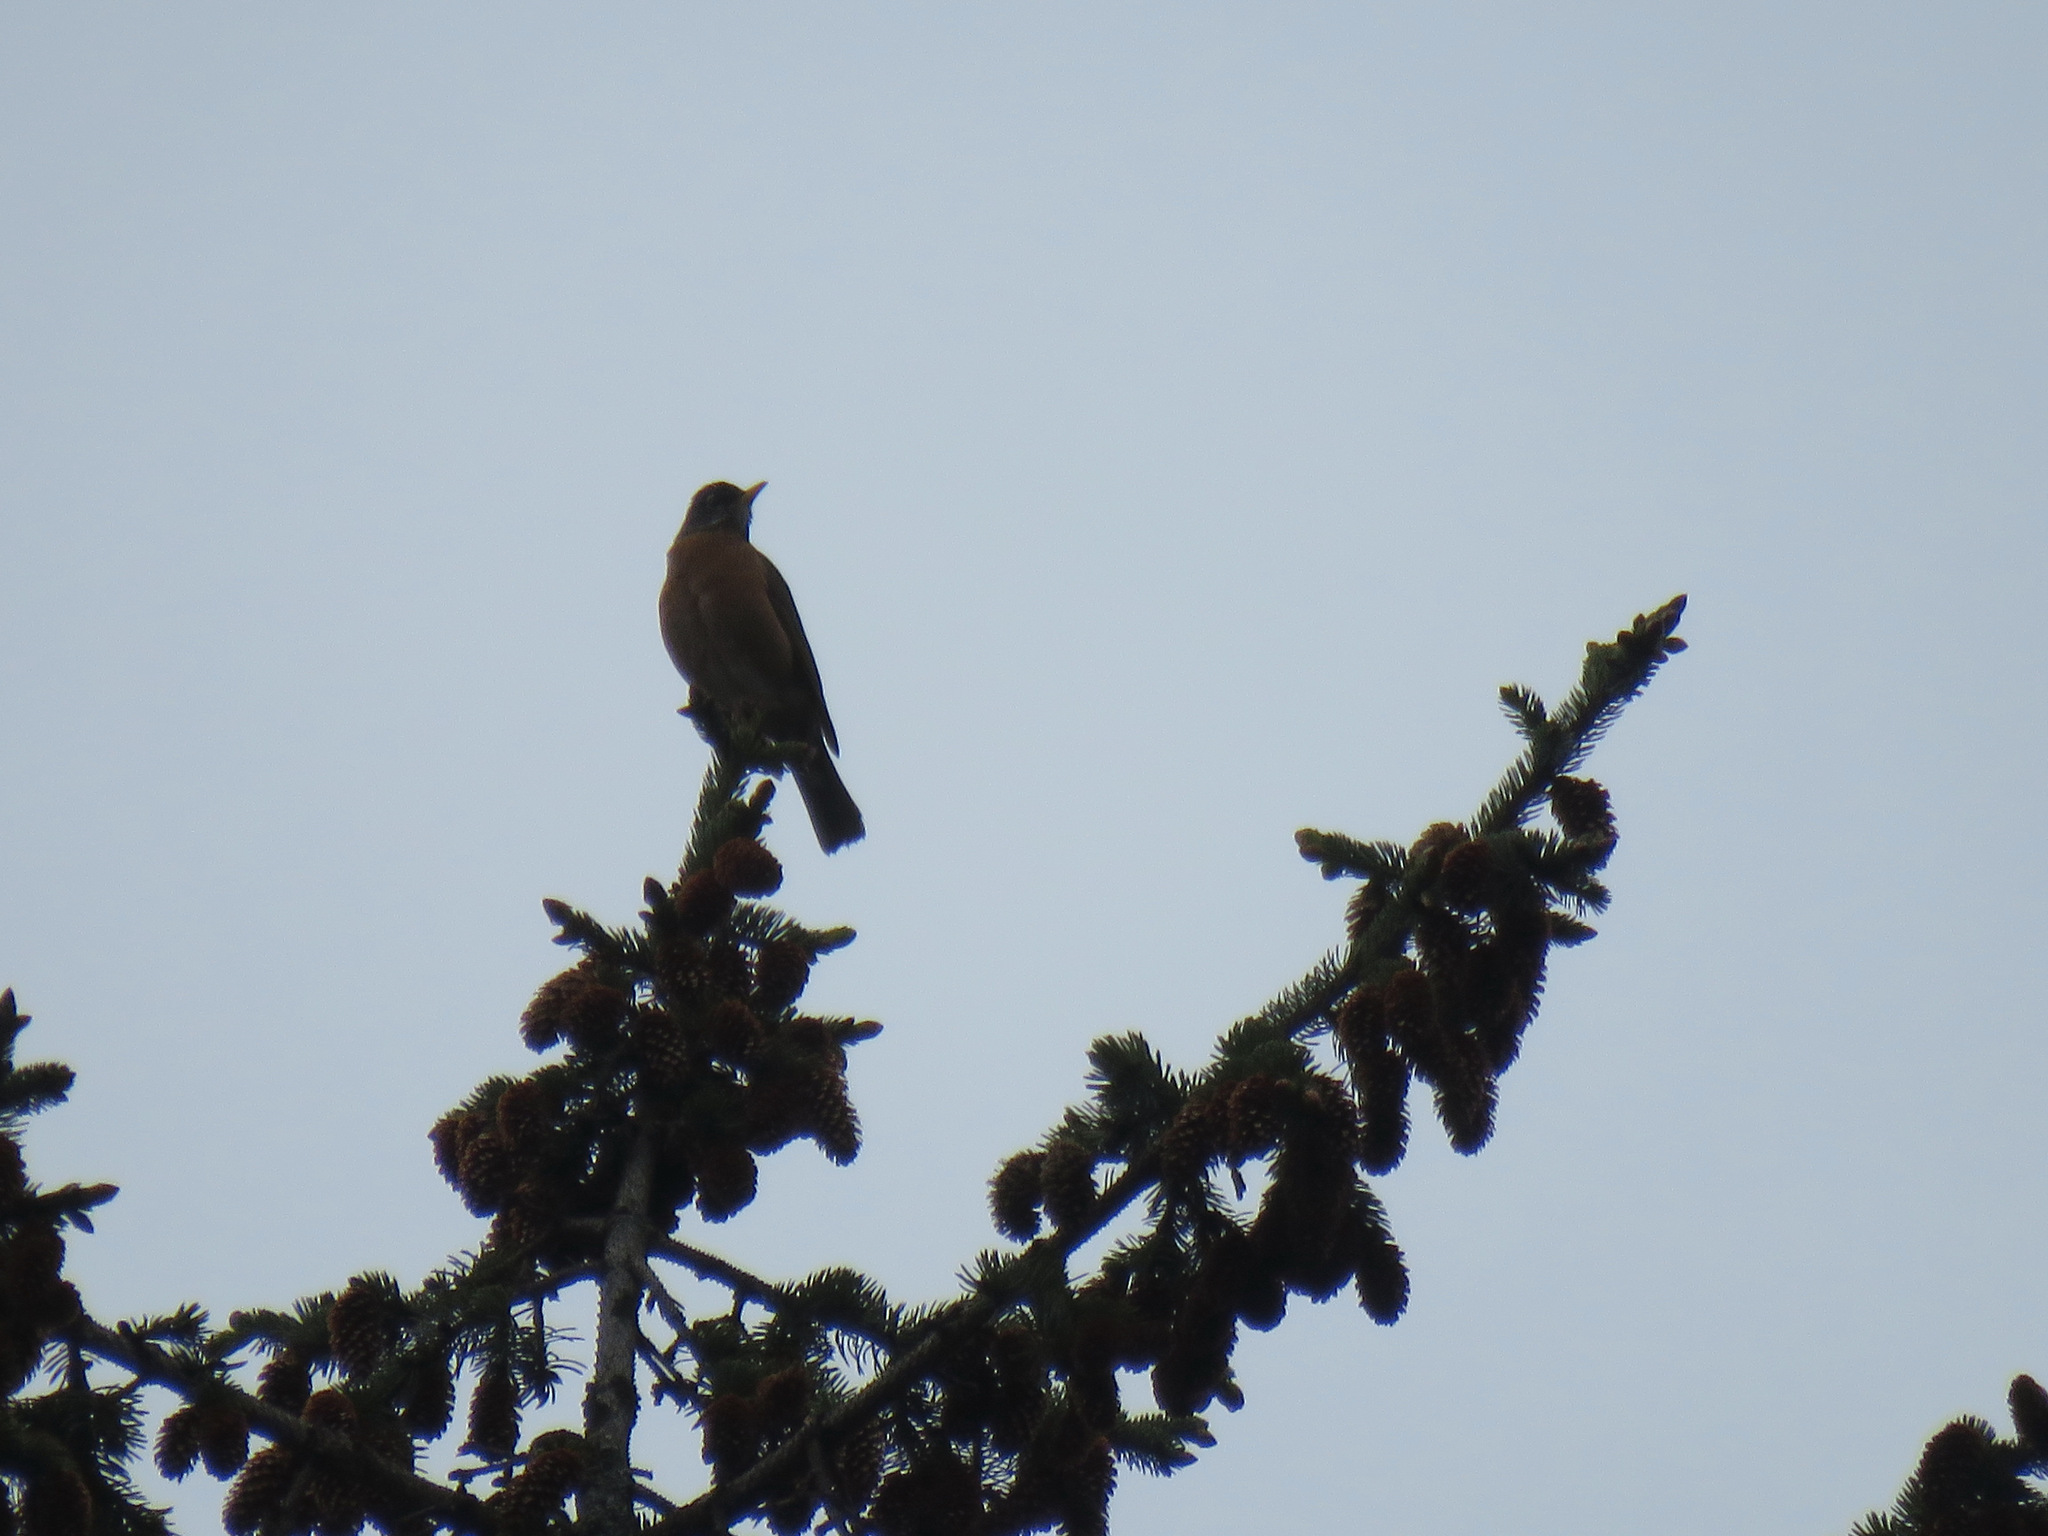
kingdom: Animalia
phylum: Chordata
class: Aves
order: Passeriformes
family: Turdidae
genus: Turdus
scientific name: Turdus migratorius
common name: American robin
